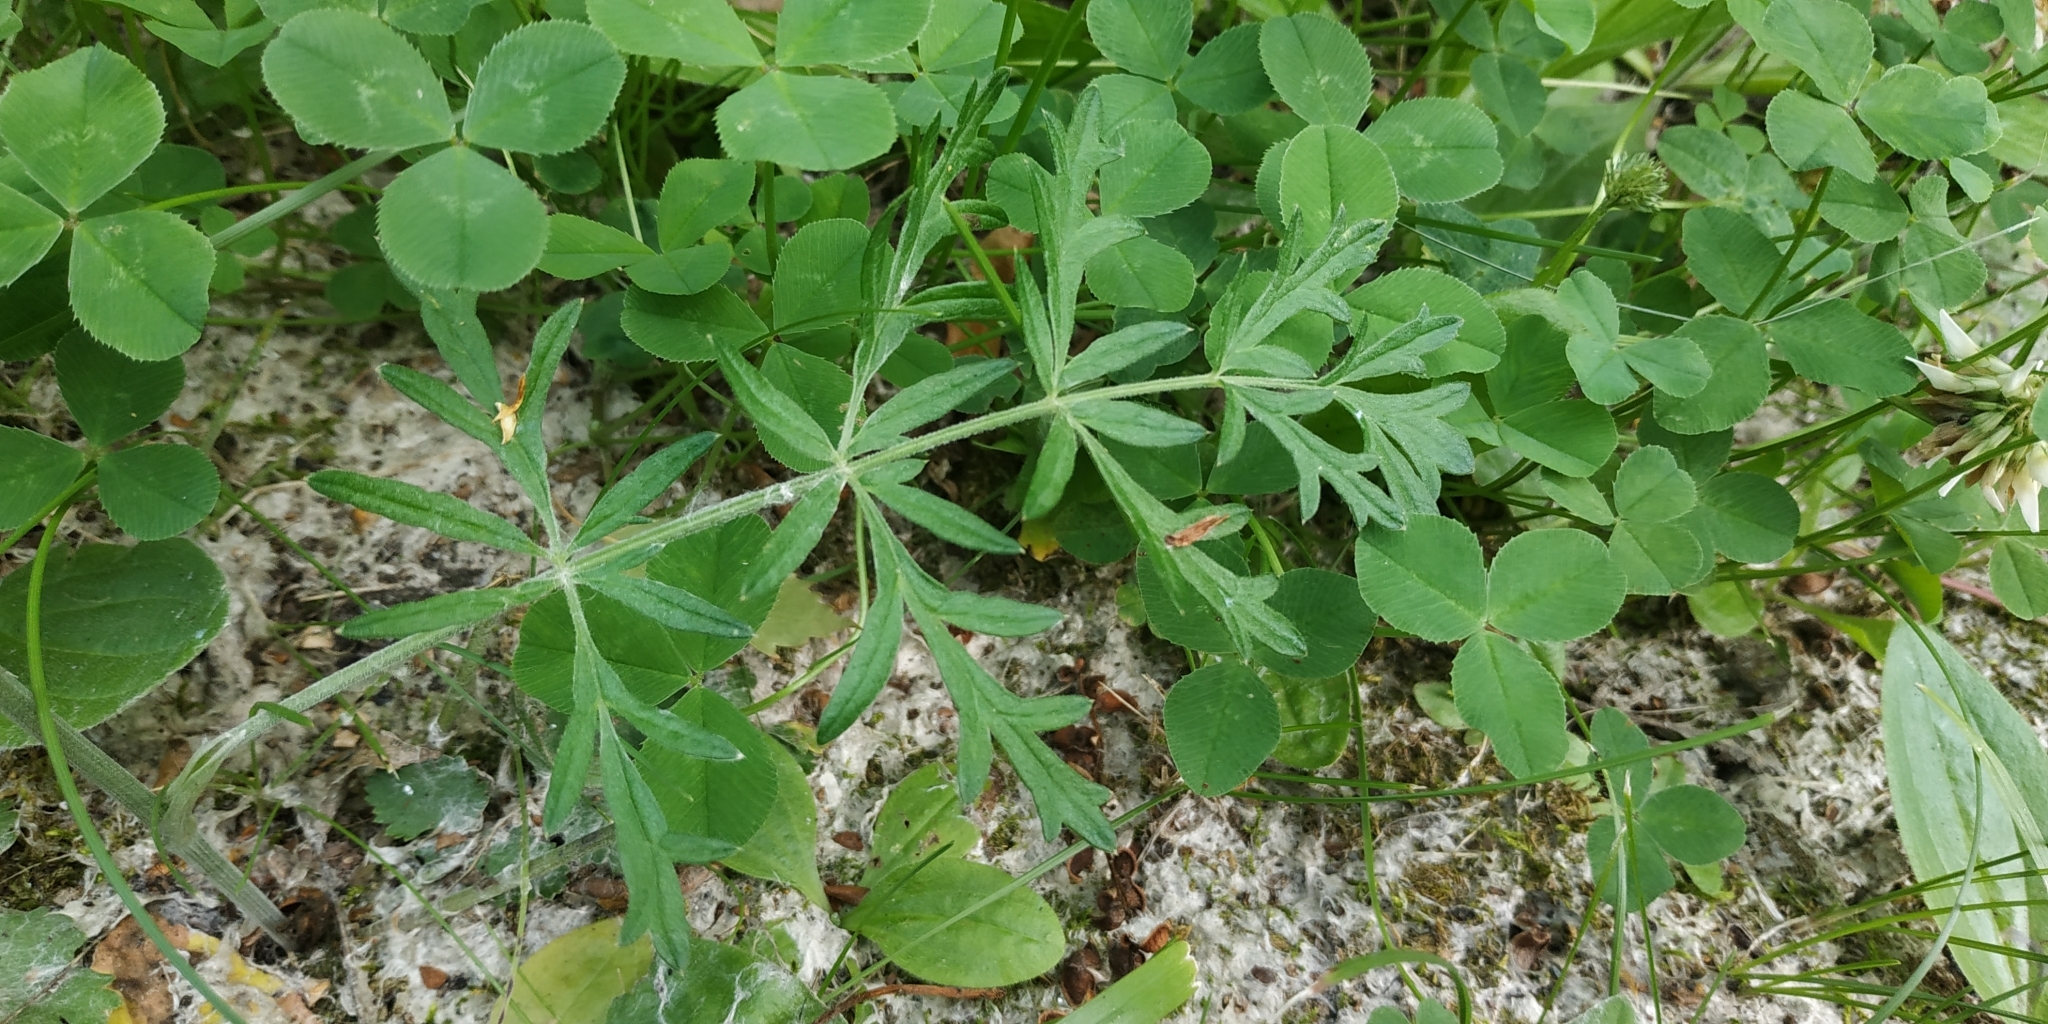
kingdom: Plantae
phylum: Tracheophyta
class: Magnoliopsida
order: Apiales
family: Apiaceae
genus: Pimpinella
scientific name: Pimpinella saxifraga
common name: Burnet-saxifrage
